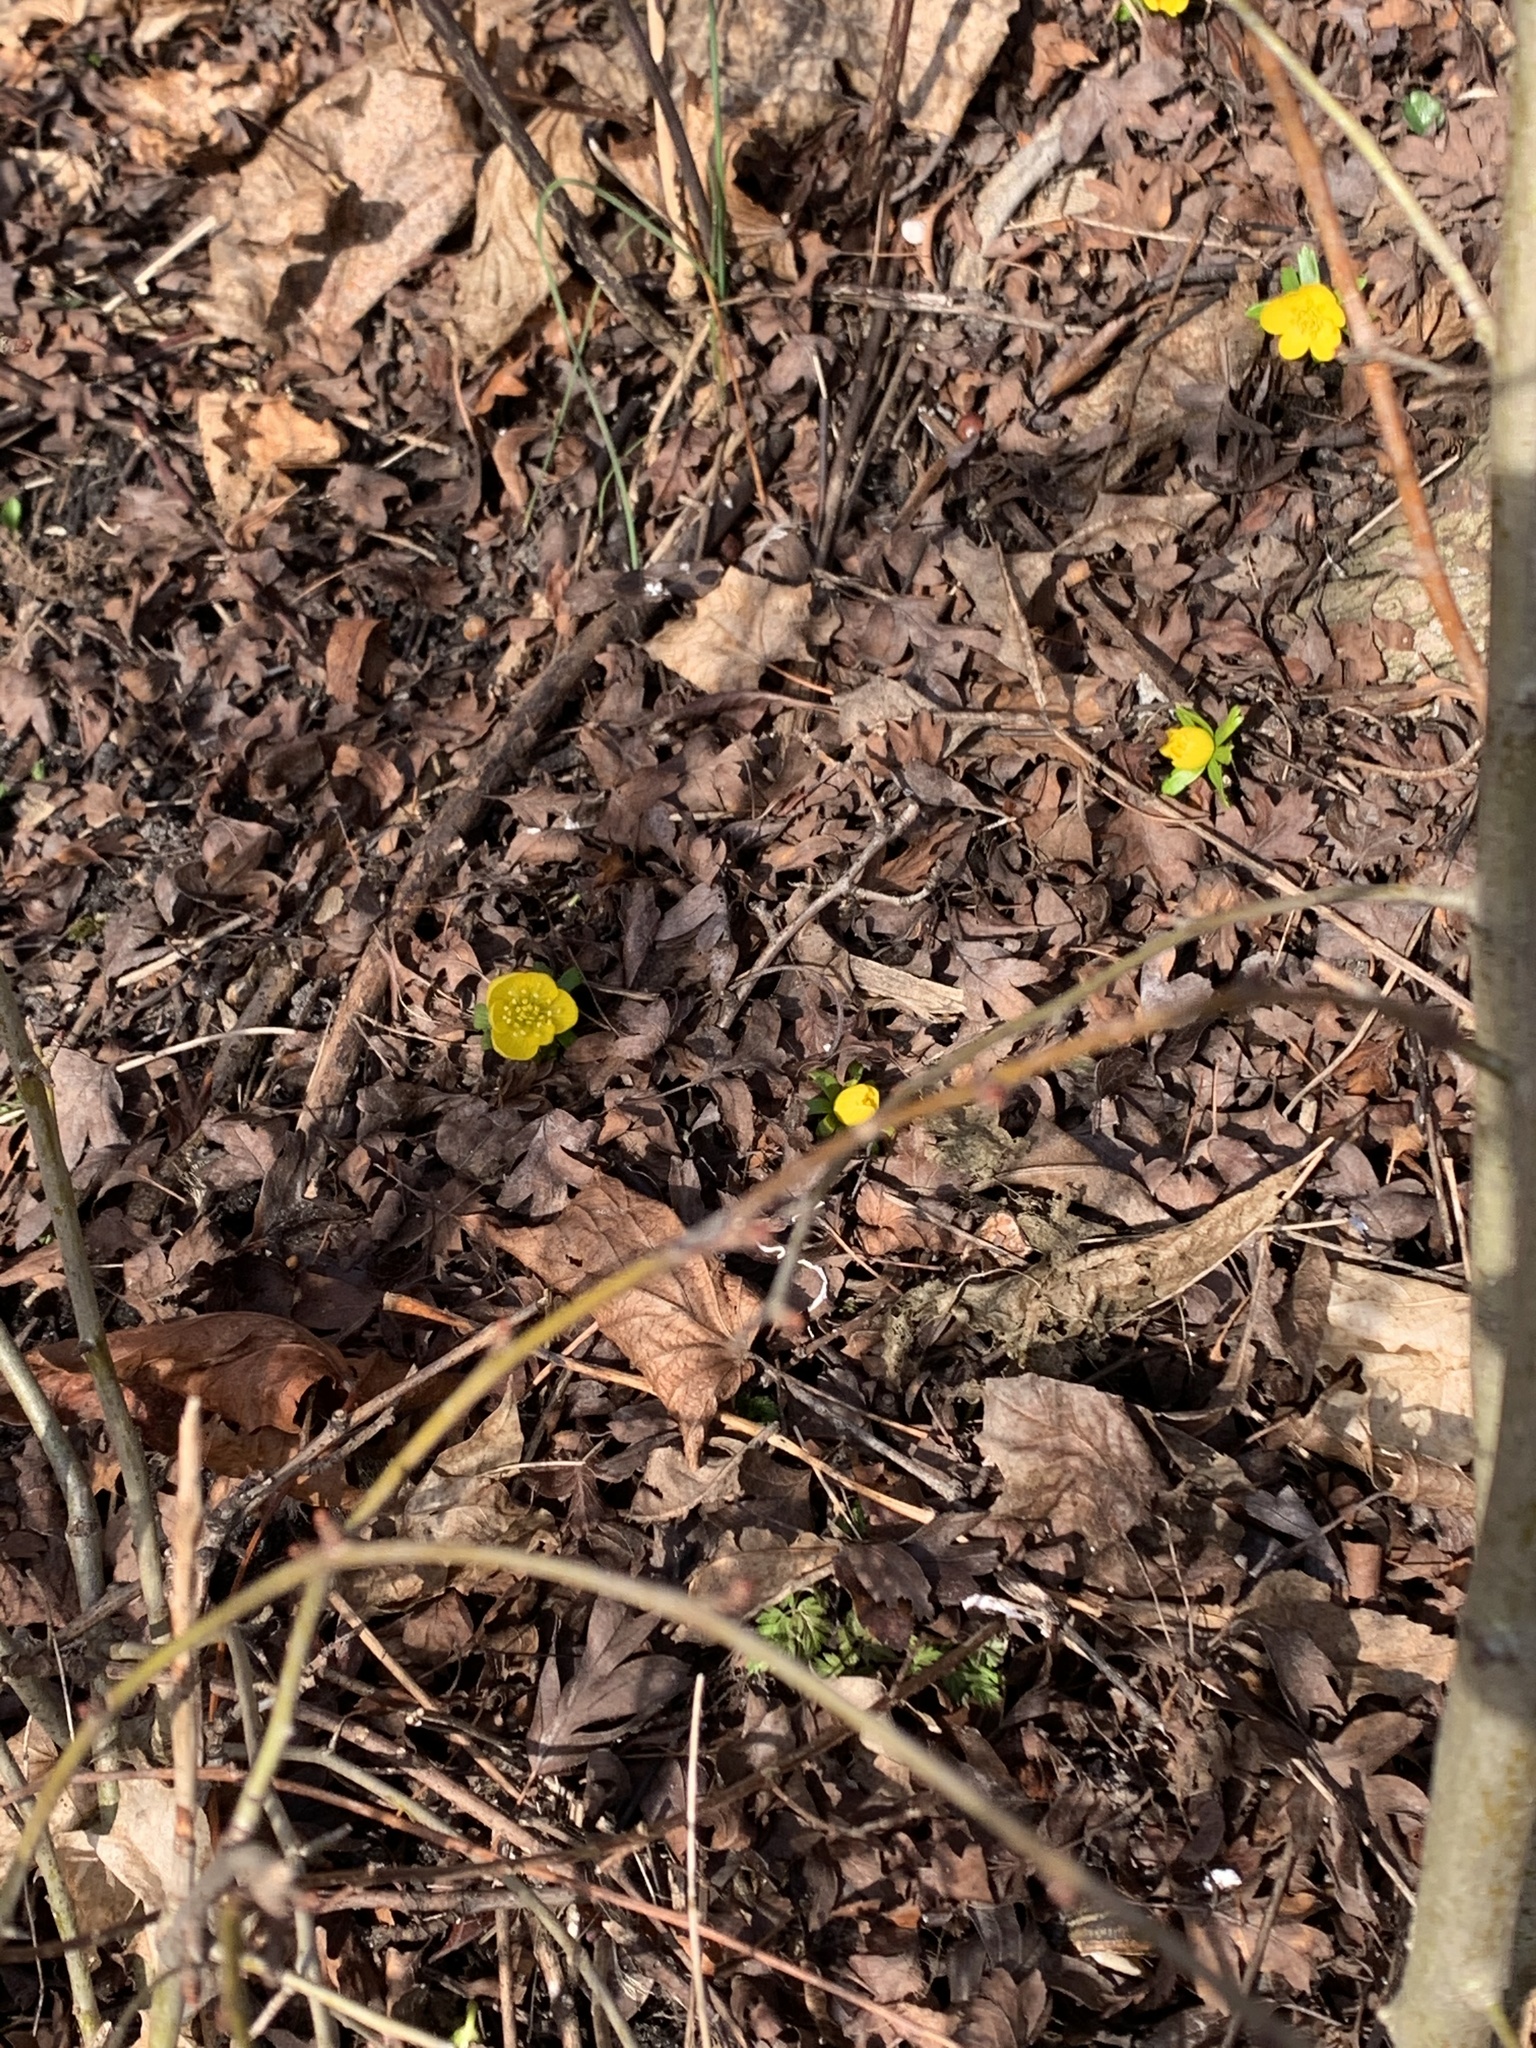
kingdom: Plantae
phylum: Tracheophyta
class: Magnoliopsida
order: Ranunculales
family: Ranunculaceae
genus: Eranthis
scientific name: Eranthis hyemalis
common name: Winter aconite
